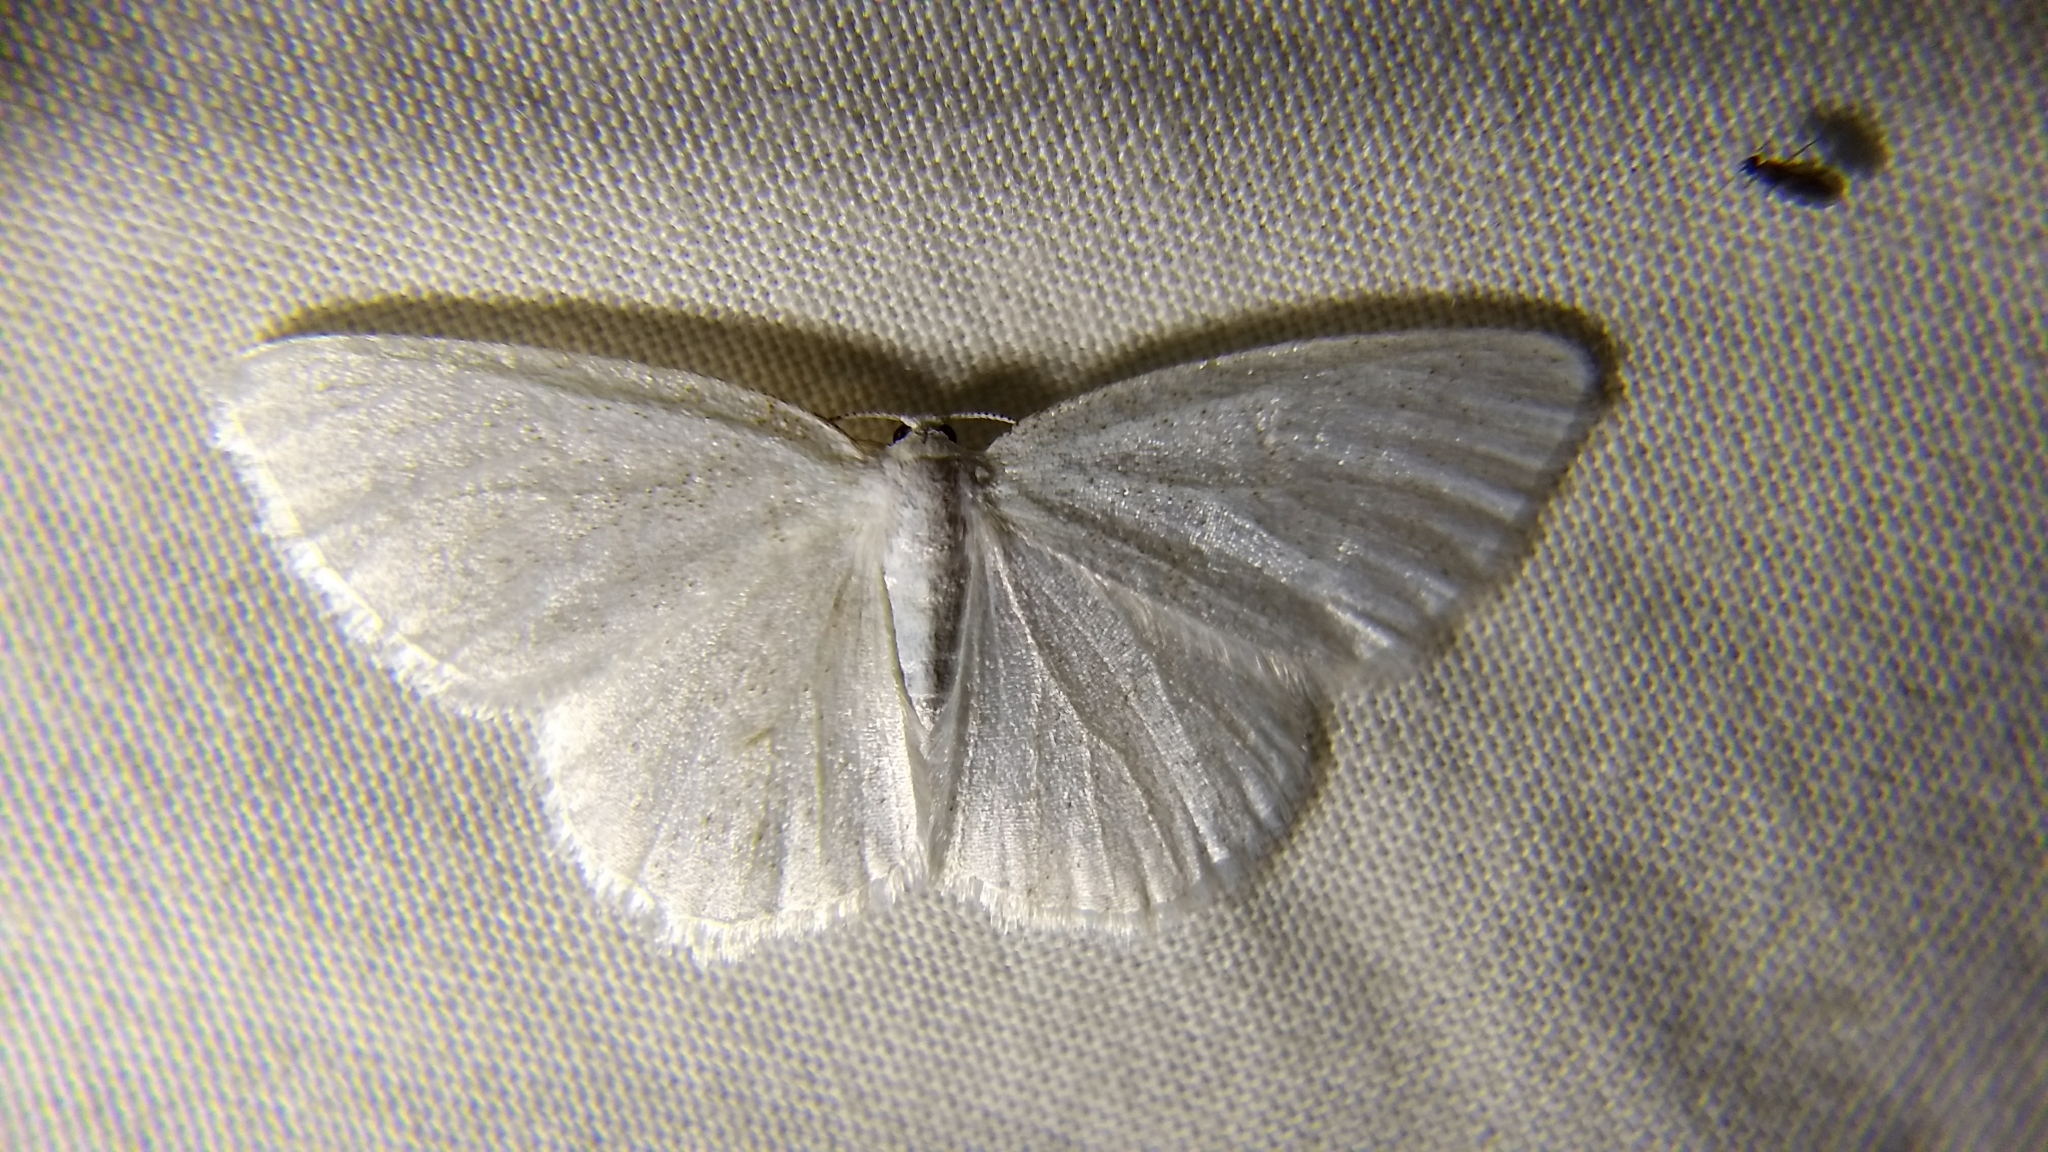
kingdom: Animalia
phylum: Arthropoda
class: Insecta
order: Lepidoptera
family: Geometridae
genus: Cabera
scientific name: Cabera variolaria
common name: Pink-striped willow spanworm
